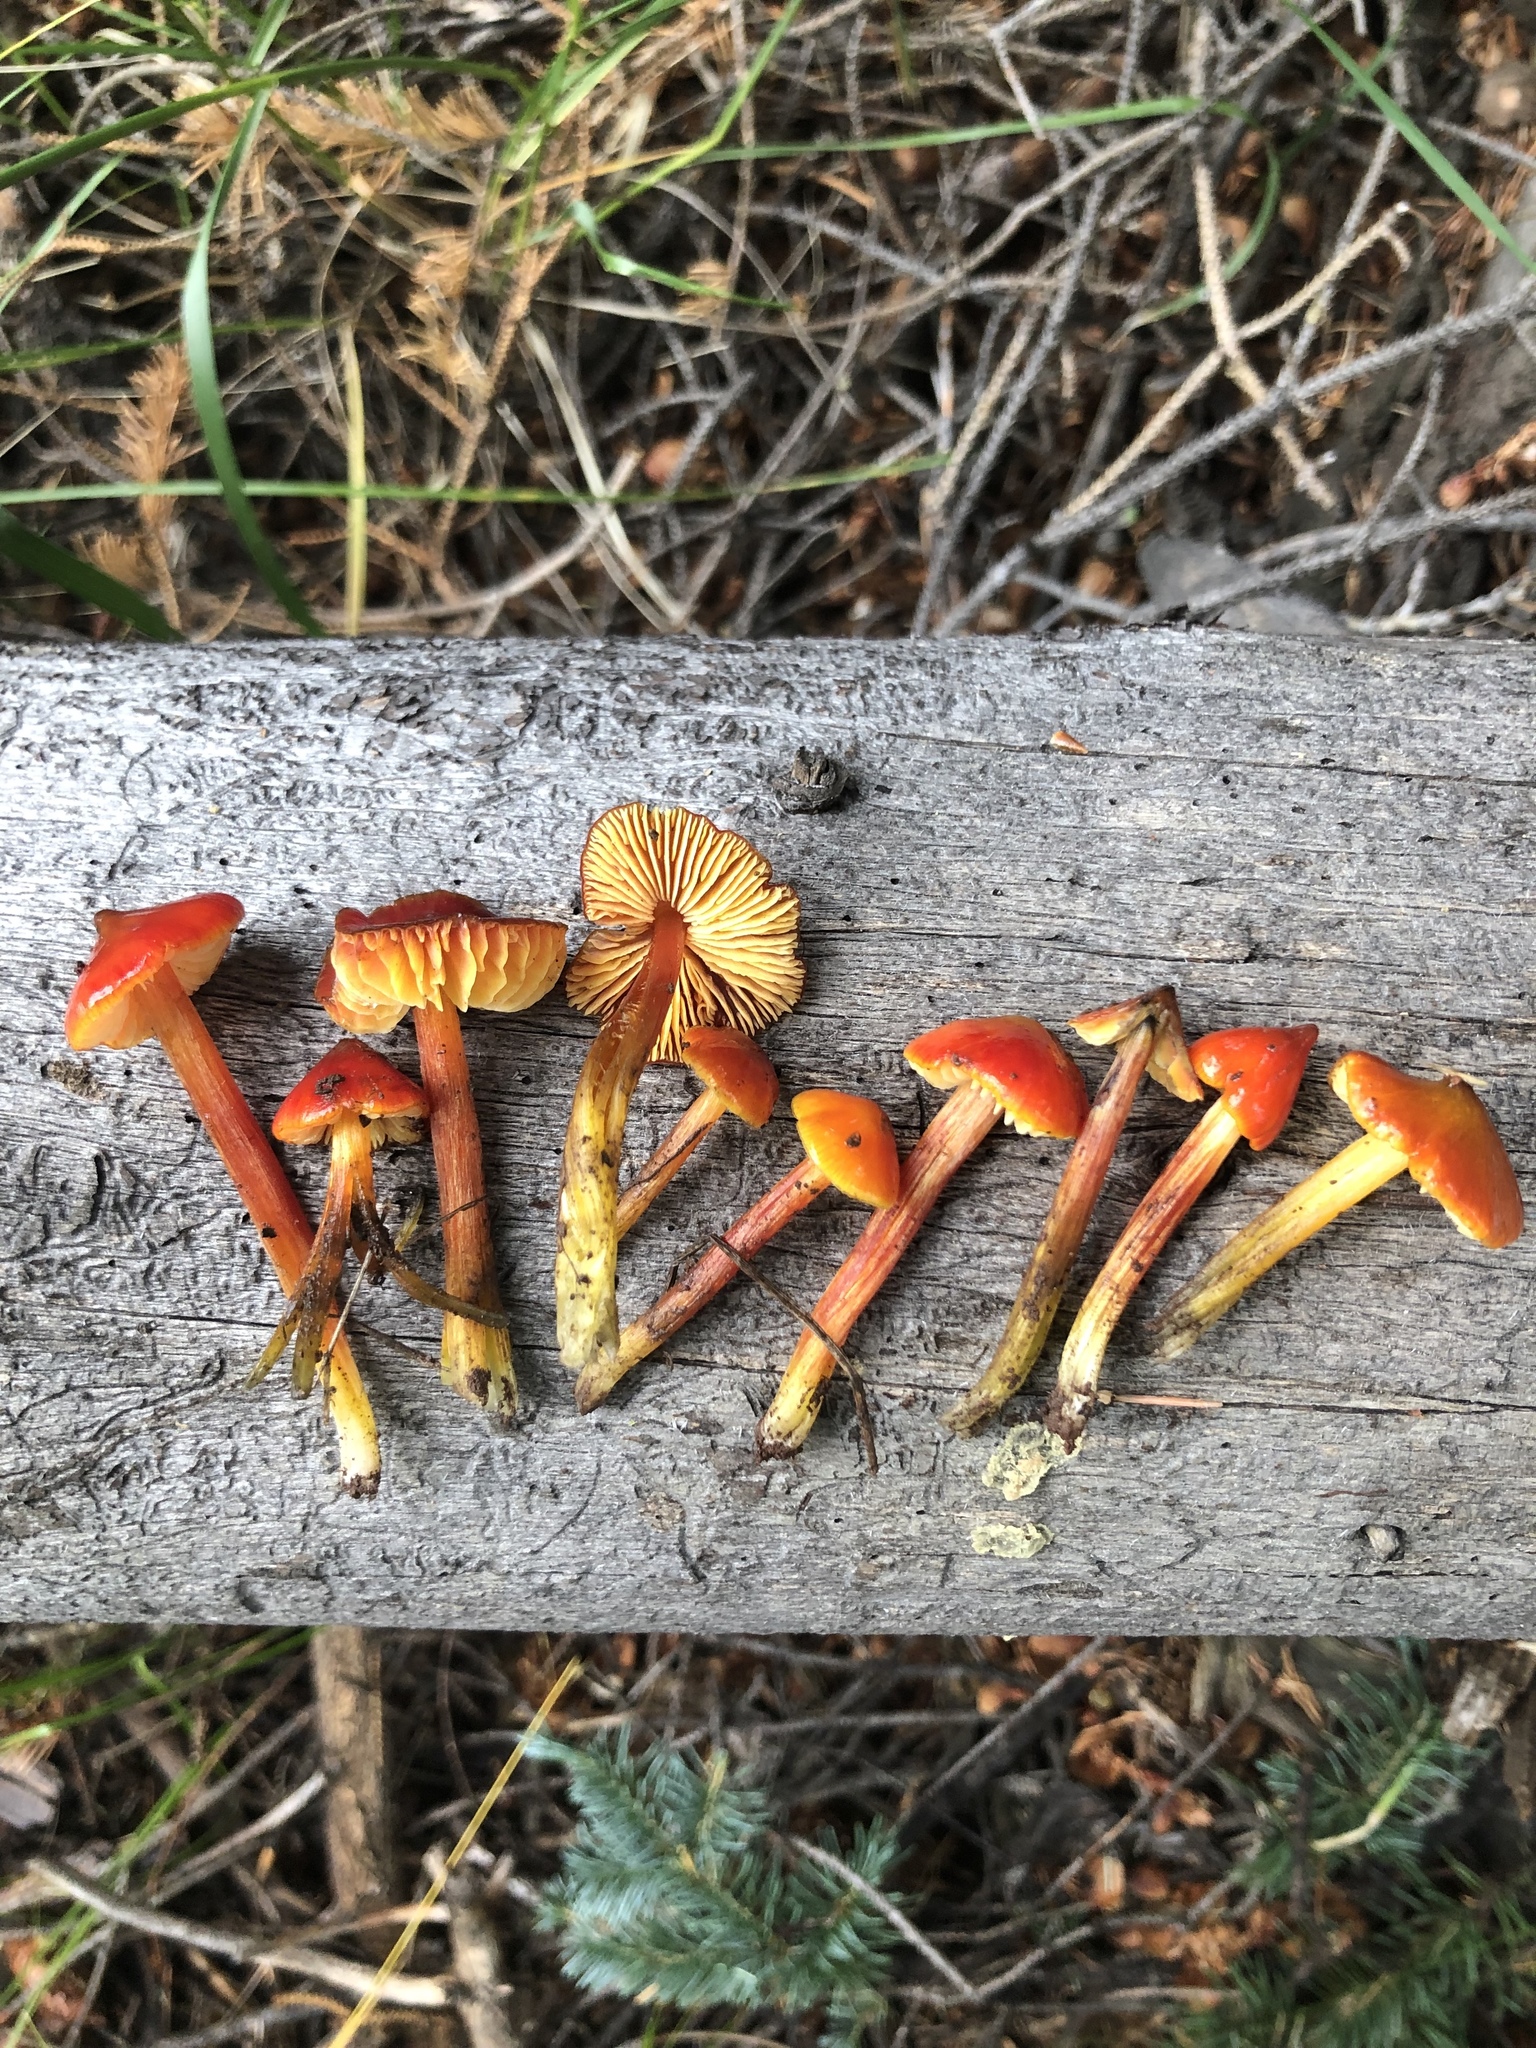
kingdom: Fungi
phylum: Basidiomycota
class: Agaricomycetes
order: Agaricales
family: Hygrophoraceae
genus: Hygrocybe
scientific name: Hygrocybe conica
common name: Blackening wax-cap
